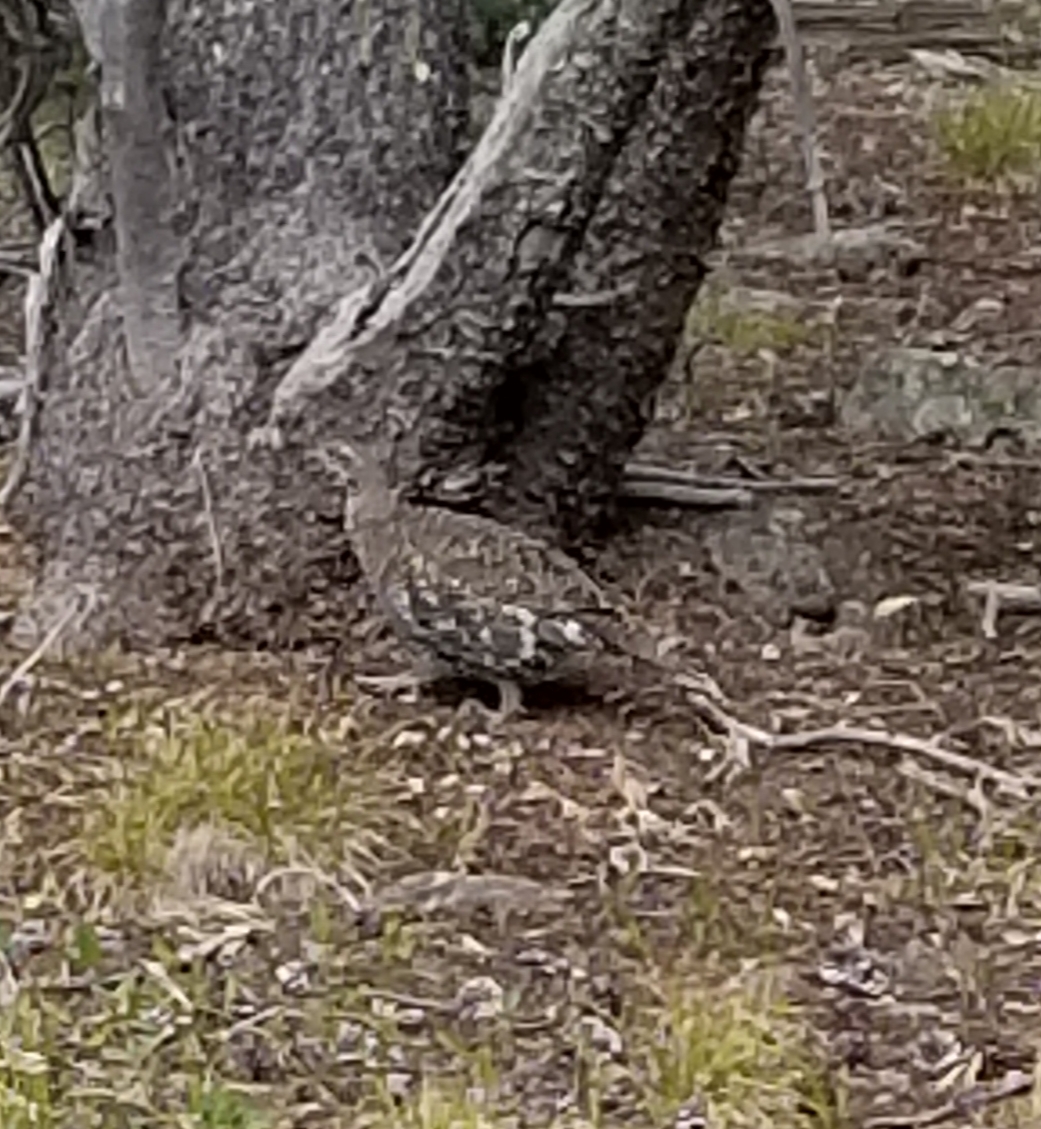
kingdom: Animalia
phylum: Chordata
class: Aves
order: Galliformes
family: Phasianidae
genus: Dendragapus
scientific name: Dendragapus obscurus
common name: Dusky grouse
